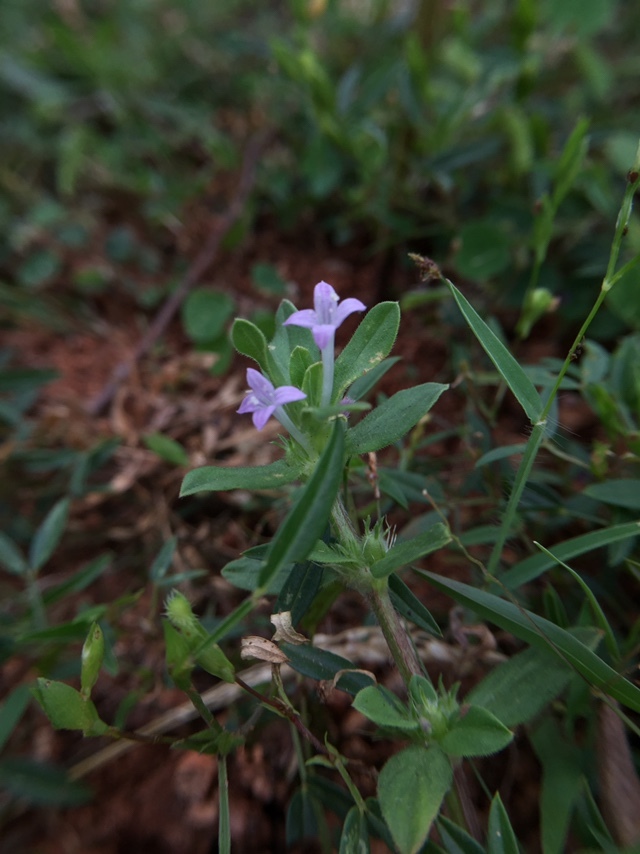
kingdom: Plantae
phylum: Tracheophyta
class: Magnoliopsida
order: Gentianales
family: Rubiaceae
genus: Spermacoce
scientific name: Spermacoce articularis
